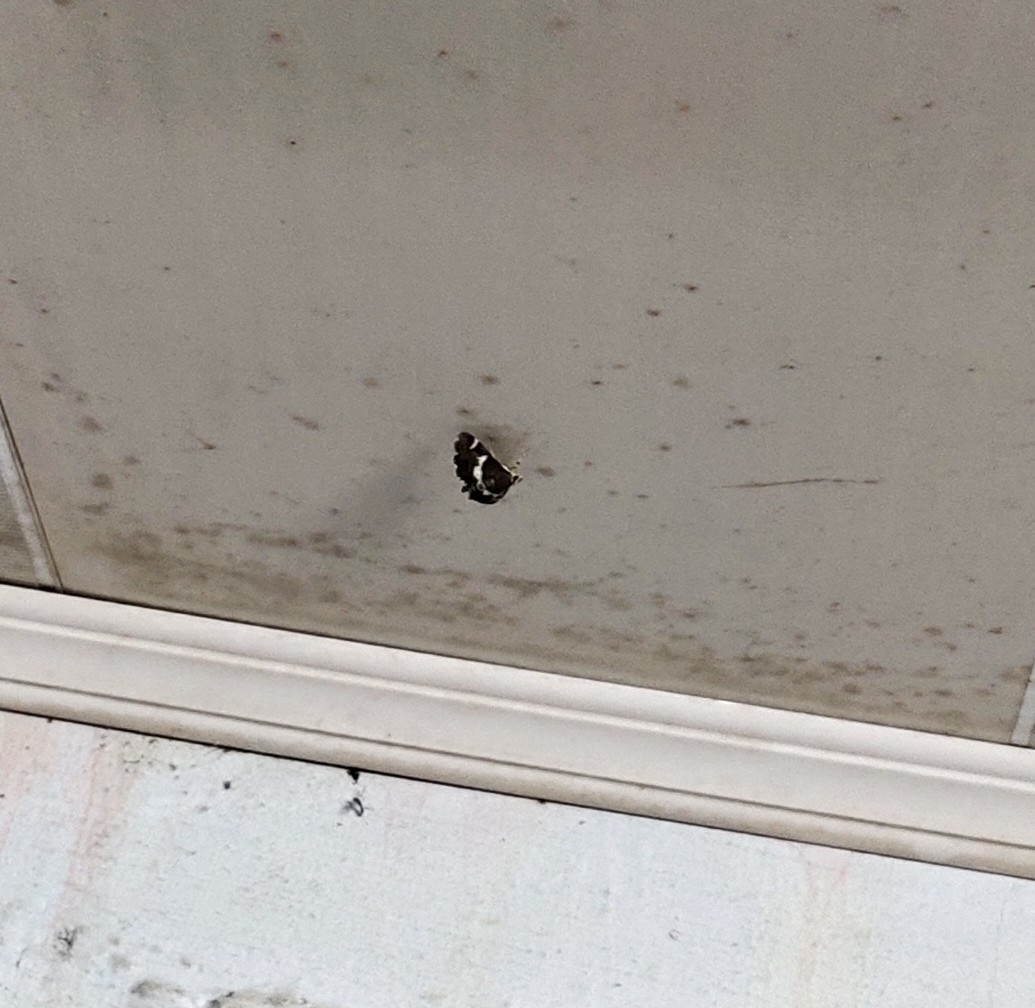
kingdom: Animalia
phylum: Arthropoda
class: Insecta
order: Lepidoptera
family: Crambidae
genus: Spoladea
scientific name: Spoladea recurvalis
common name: Beet webworm moth
